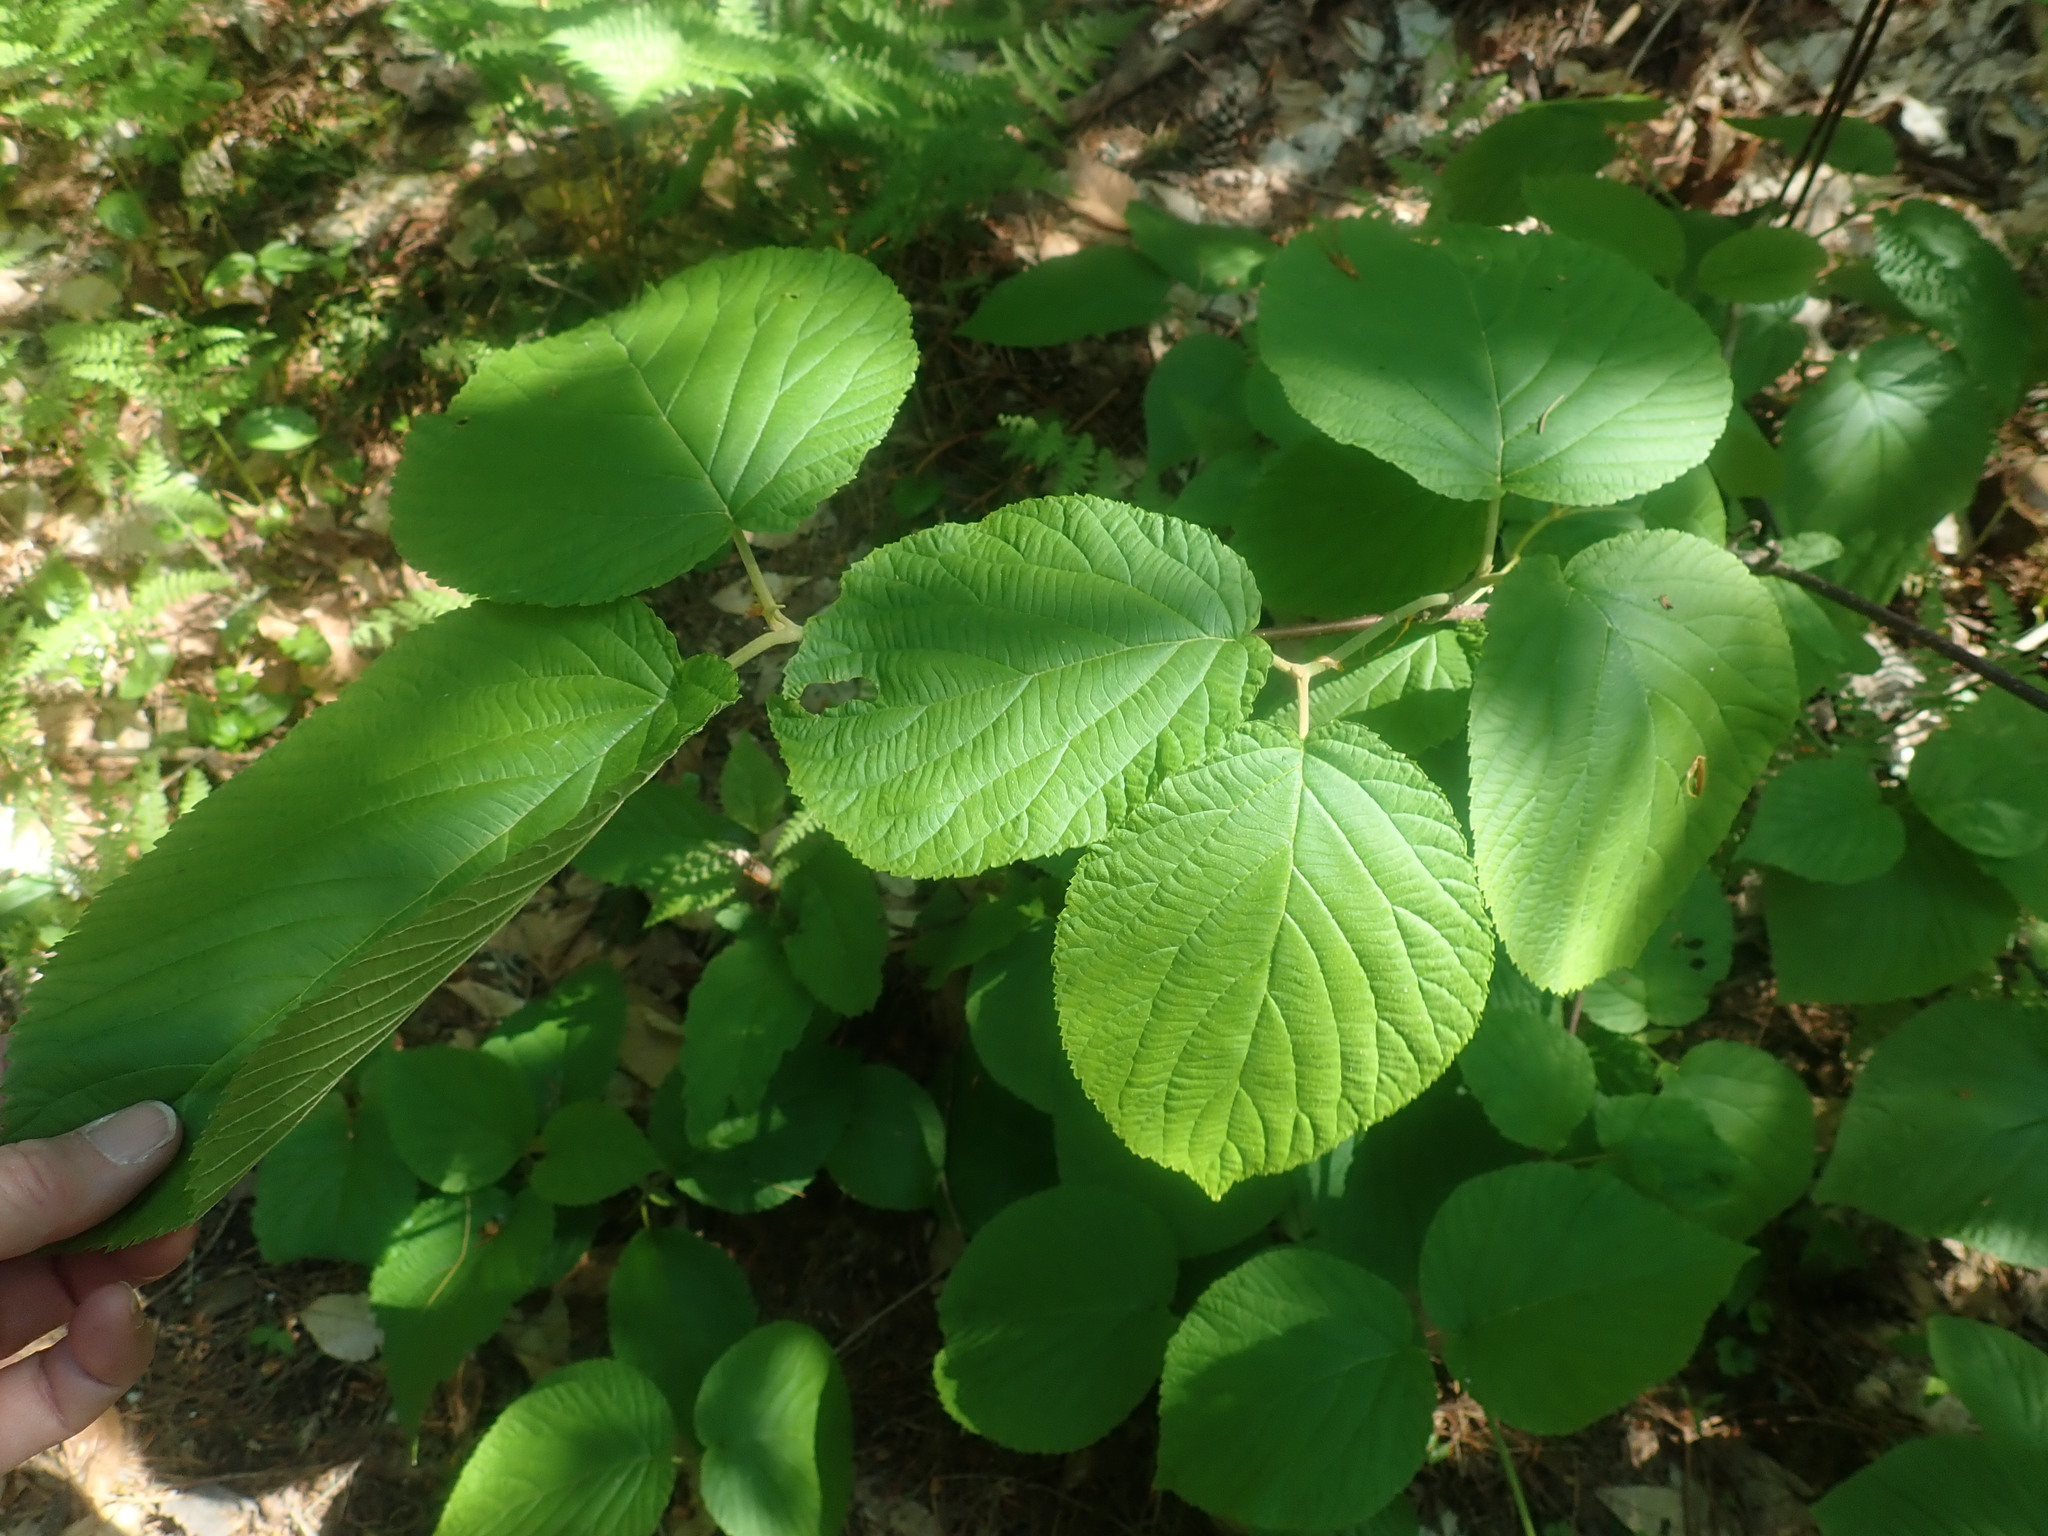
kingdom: Plantae
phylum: Tracheophyta
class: Magnoliopsida
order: Dipsacales
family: Viburnaceae
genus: Viburnum
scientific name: Viburnum lantanoides
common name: Hobblebush
